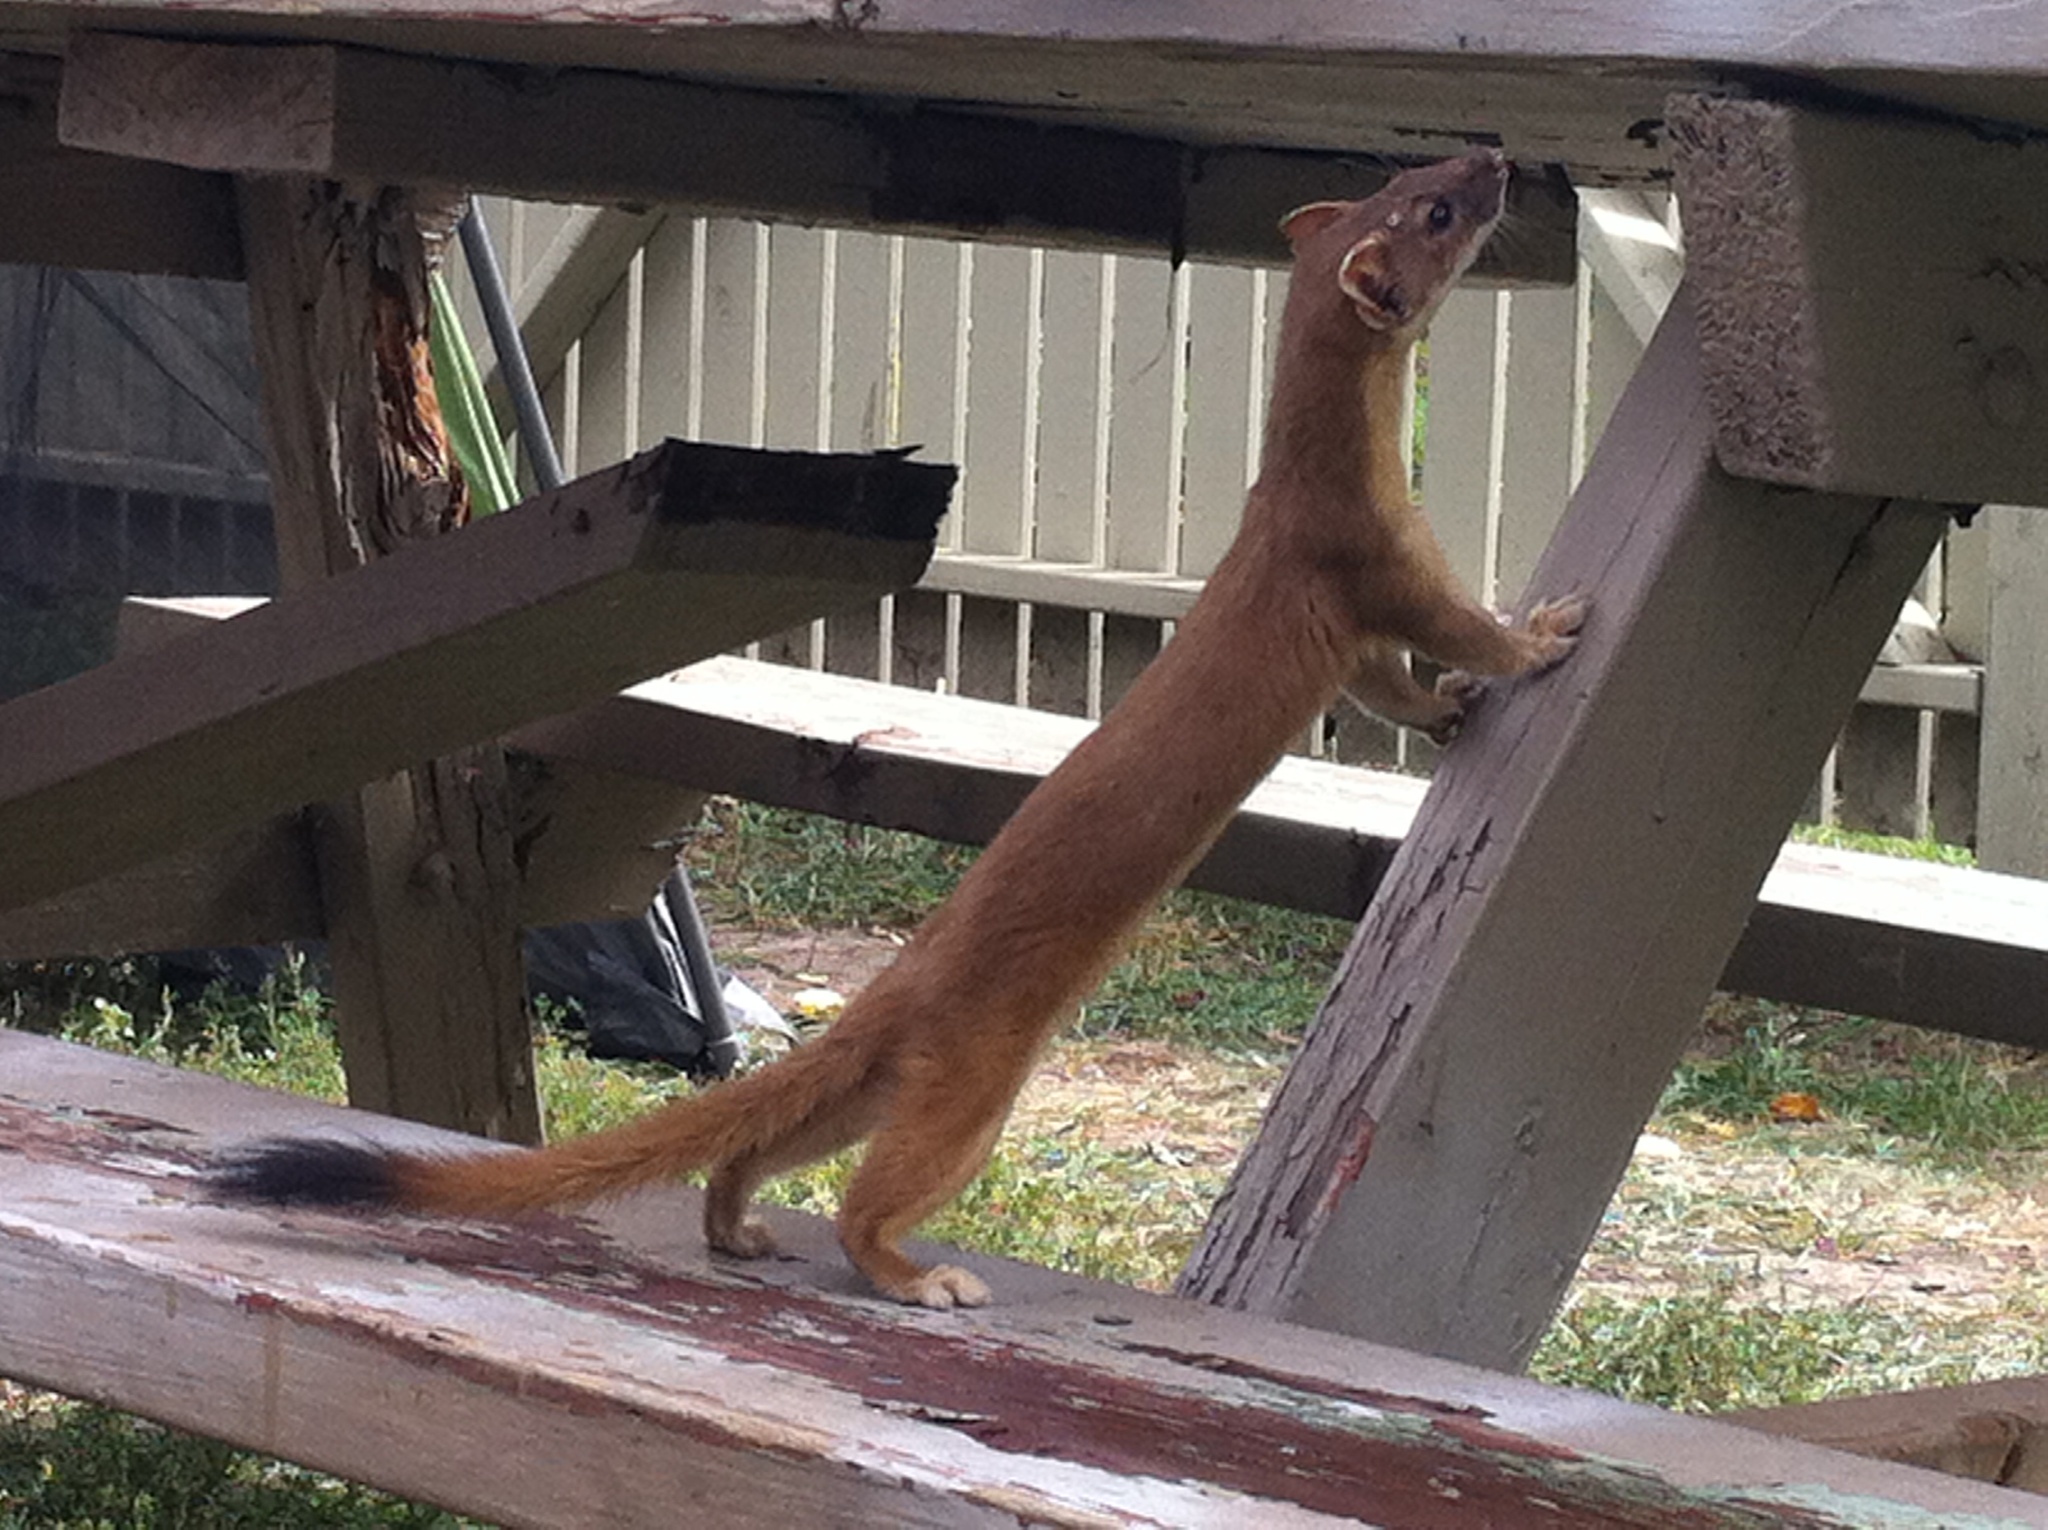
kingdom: Animalia
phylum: Chordata
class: Mammalia
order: Carnivora
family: Mustelidae
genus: Mustela
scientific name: Mustela
